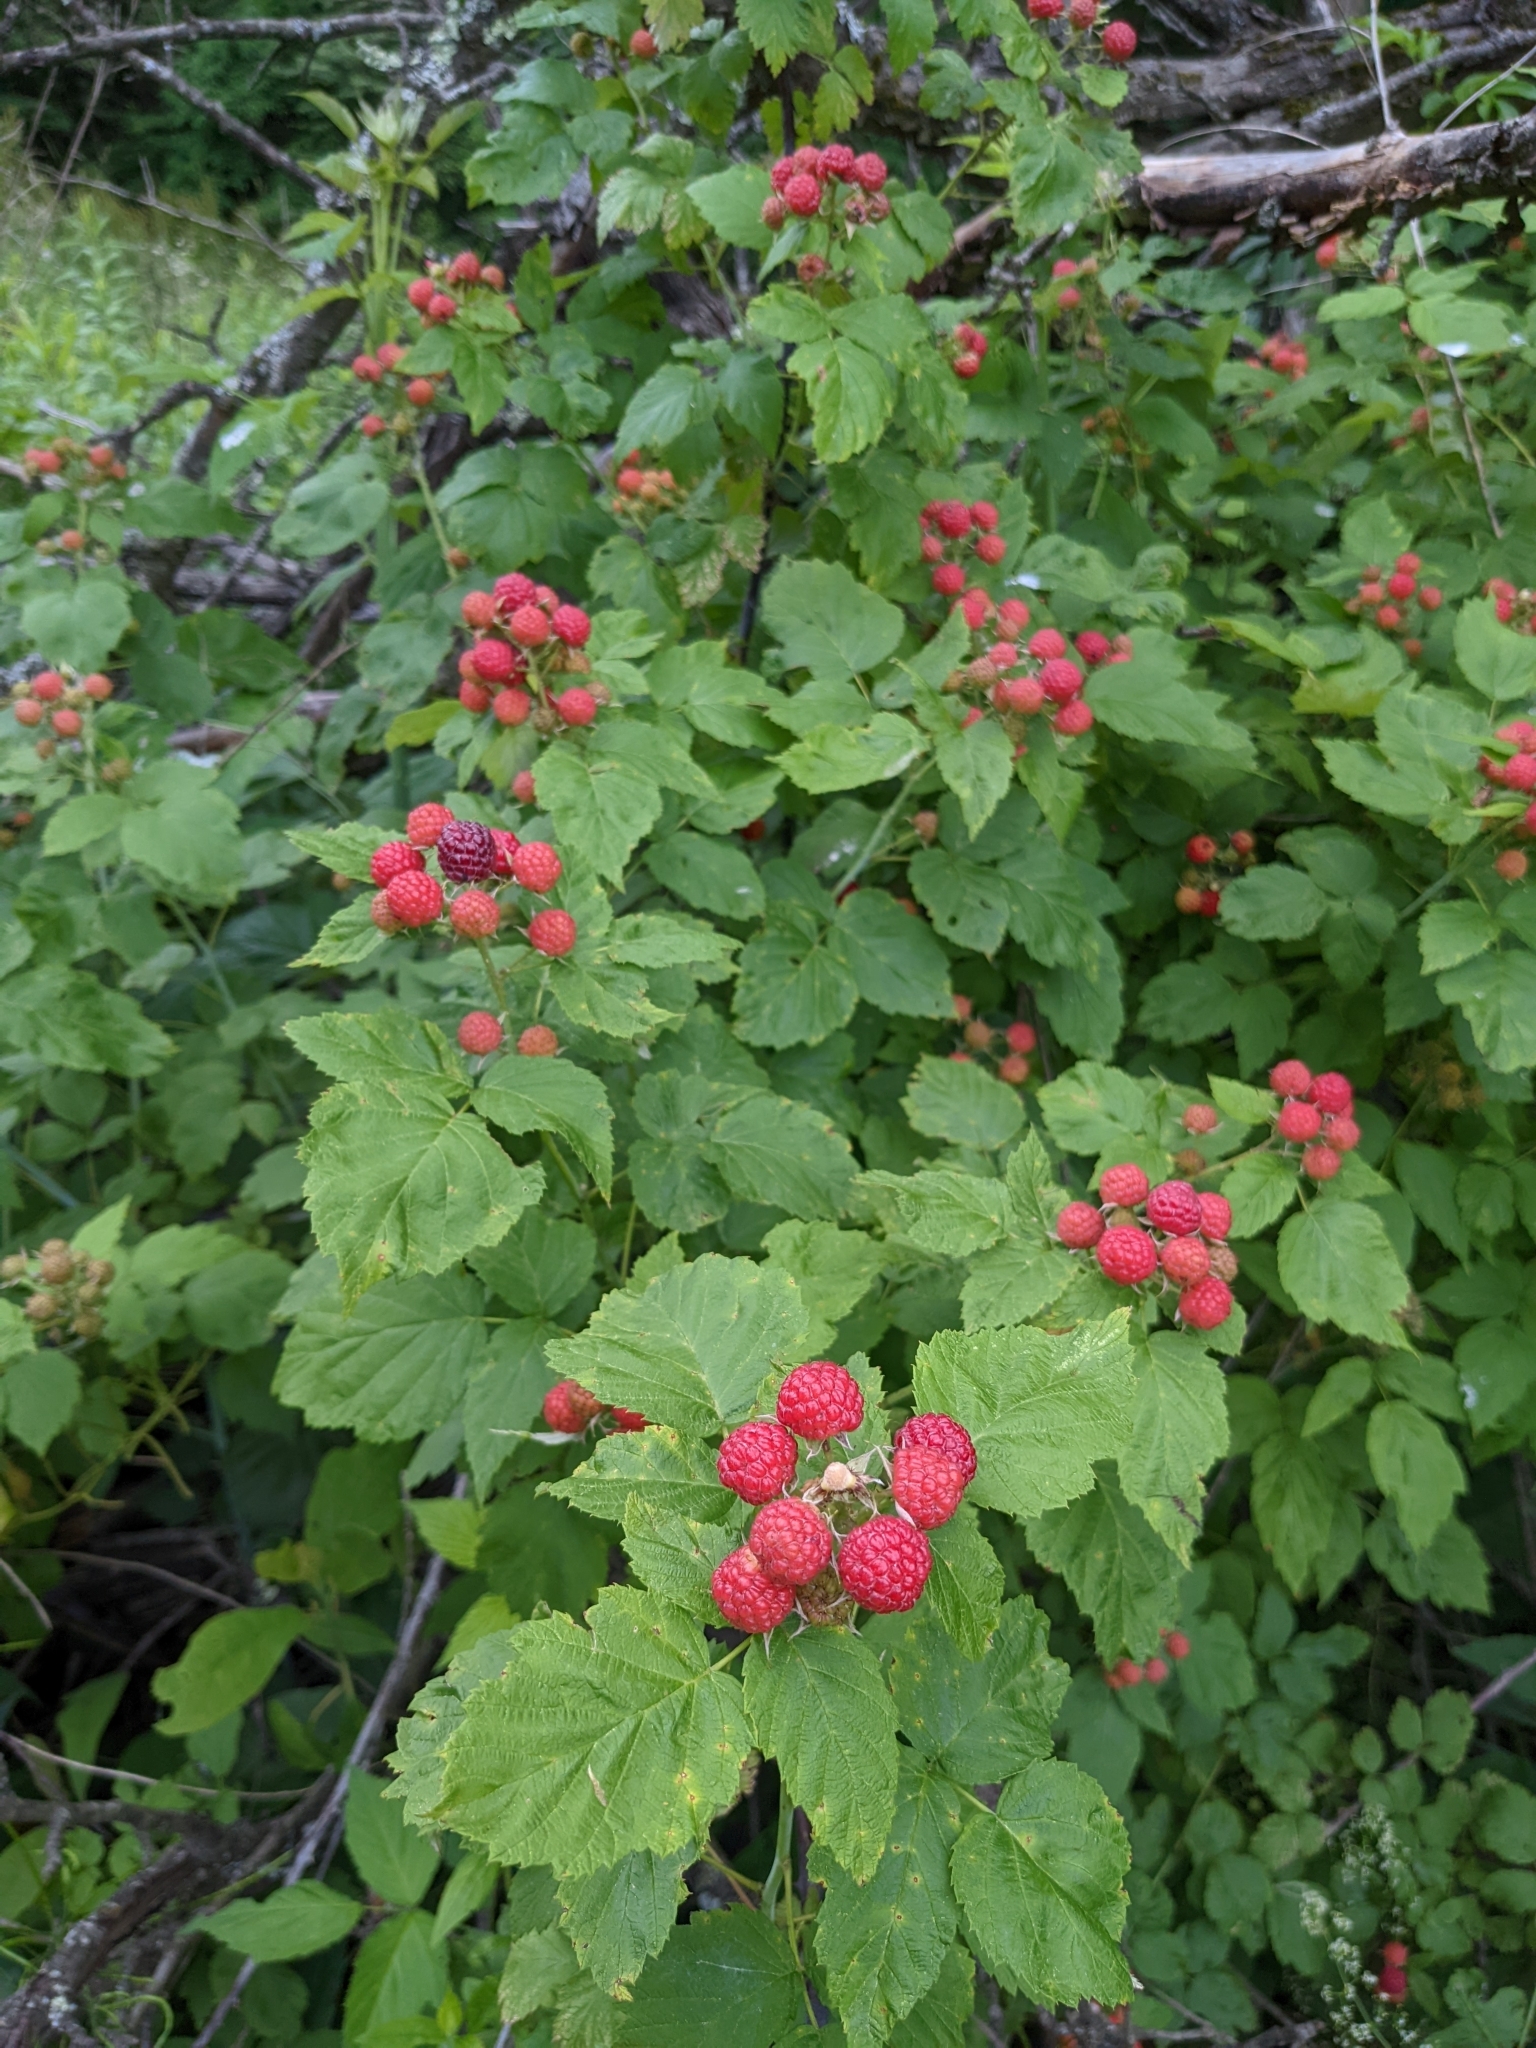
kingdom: Plantae
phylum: Tracheophyta
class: Magnoliopsida
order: Rosales
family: Rosaceae
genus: Rubus
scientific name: Rubus occidentalis
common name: Black raspberry
